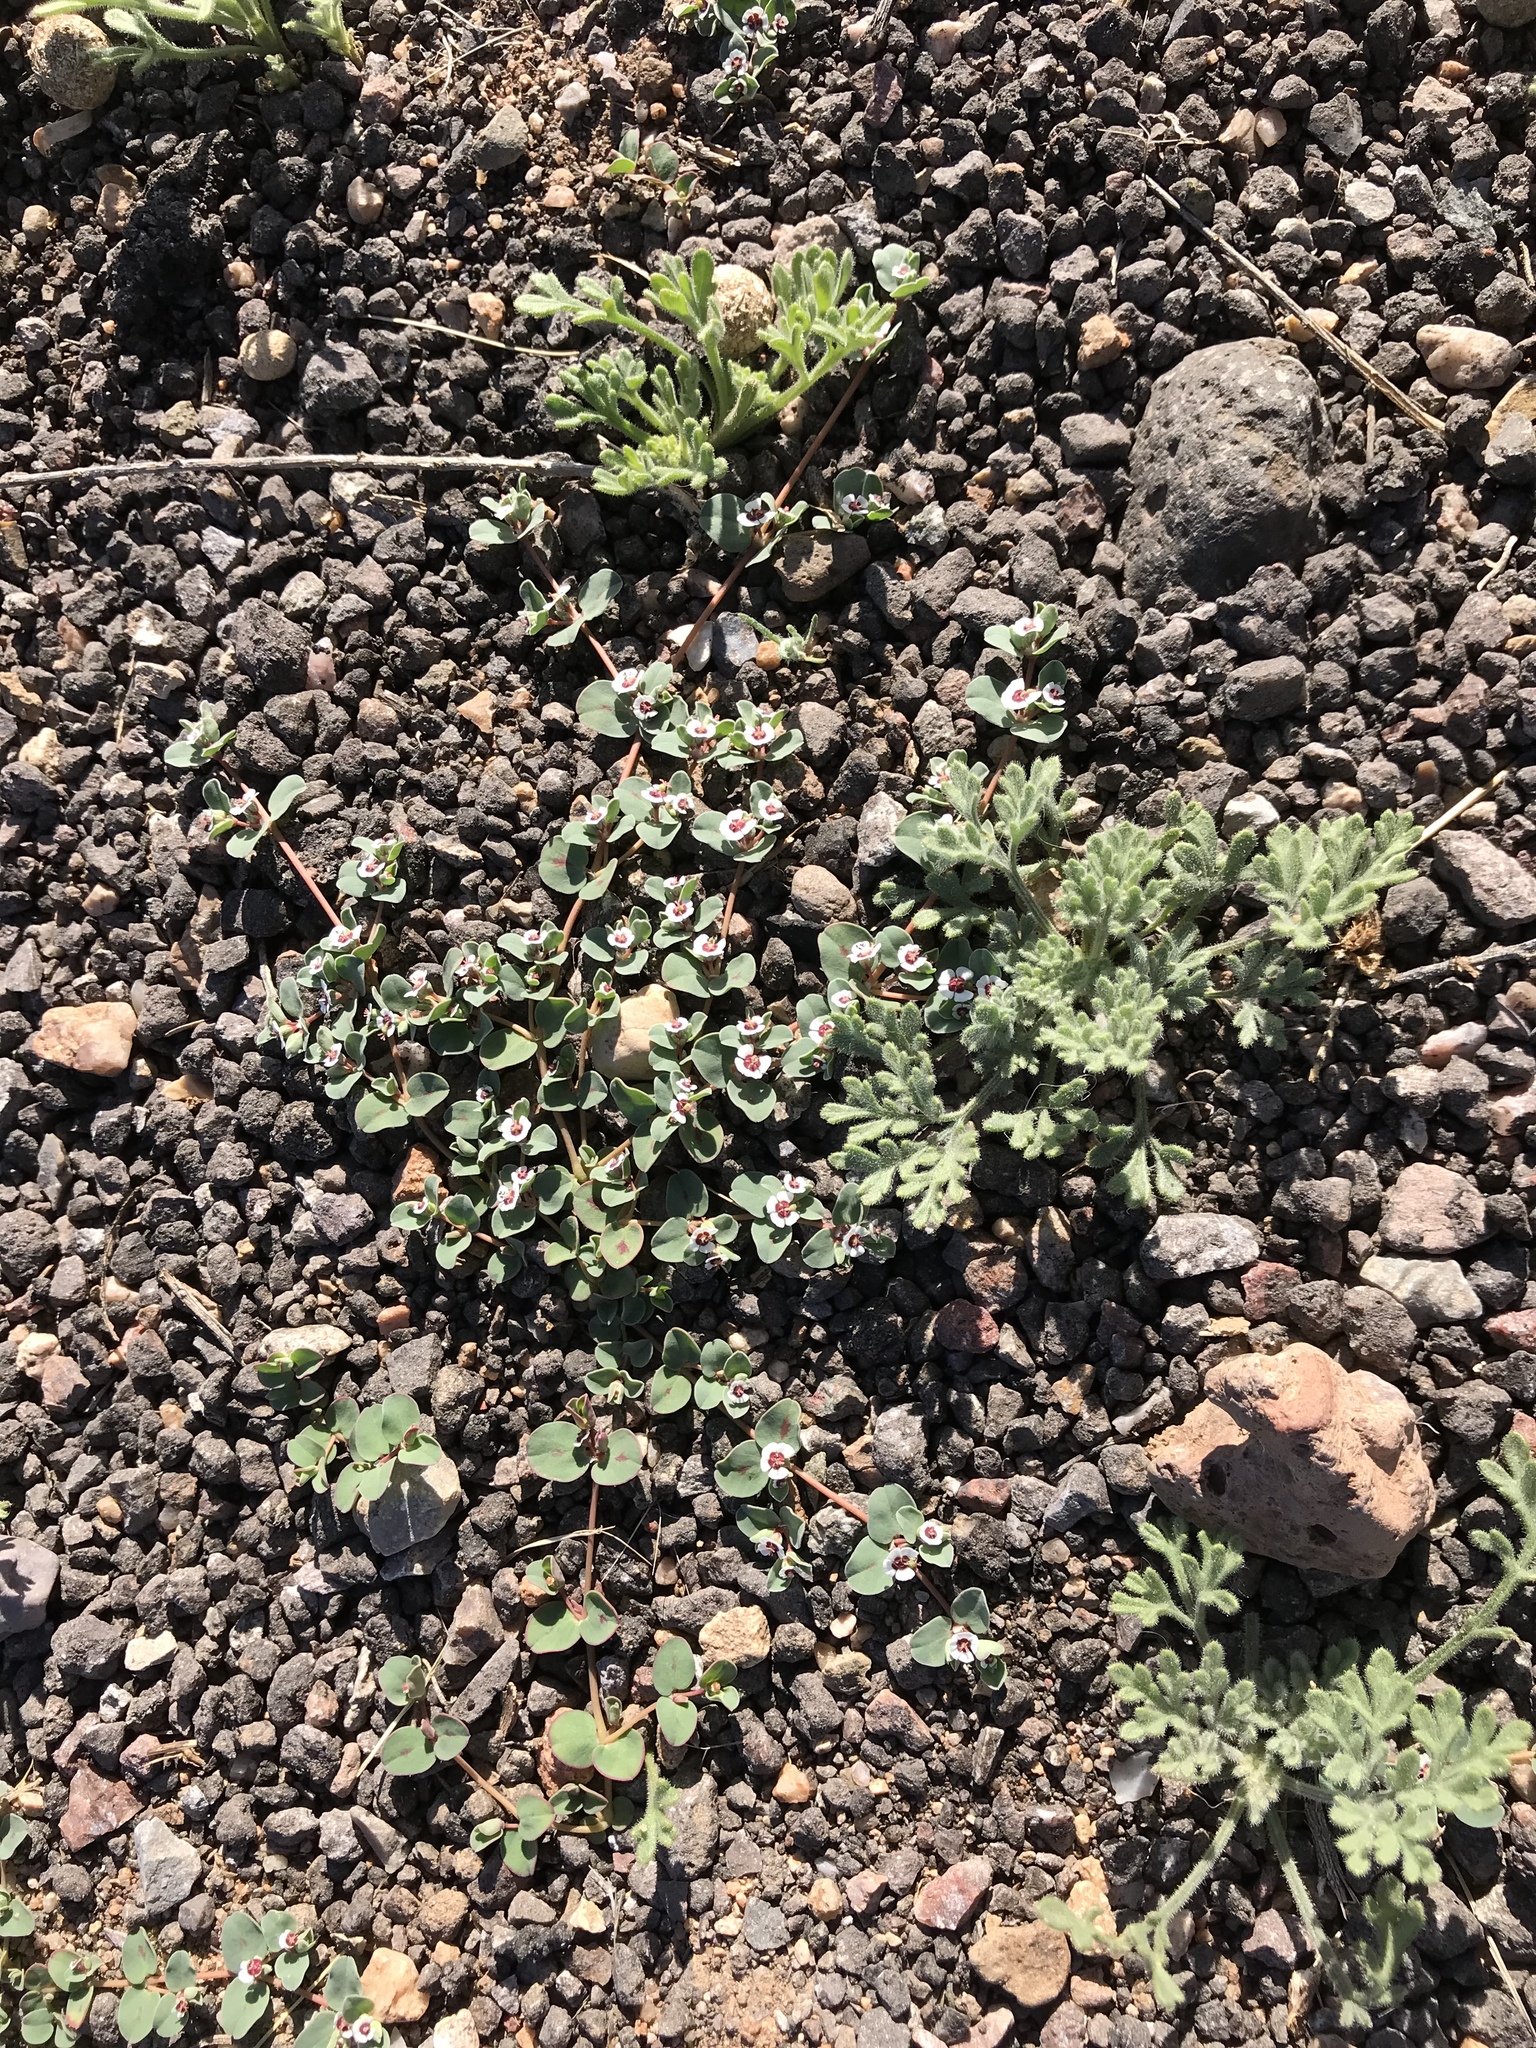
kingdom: Plantae
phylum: Tracheophyta
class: Magnoliopsida
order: Malpighiales
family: Euphorbiaceae
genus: Euphorbia
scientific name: Euphorbia albomarginata
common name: Whitemargin sandmat
